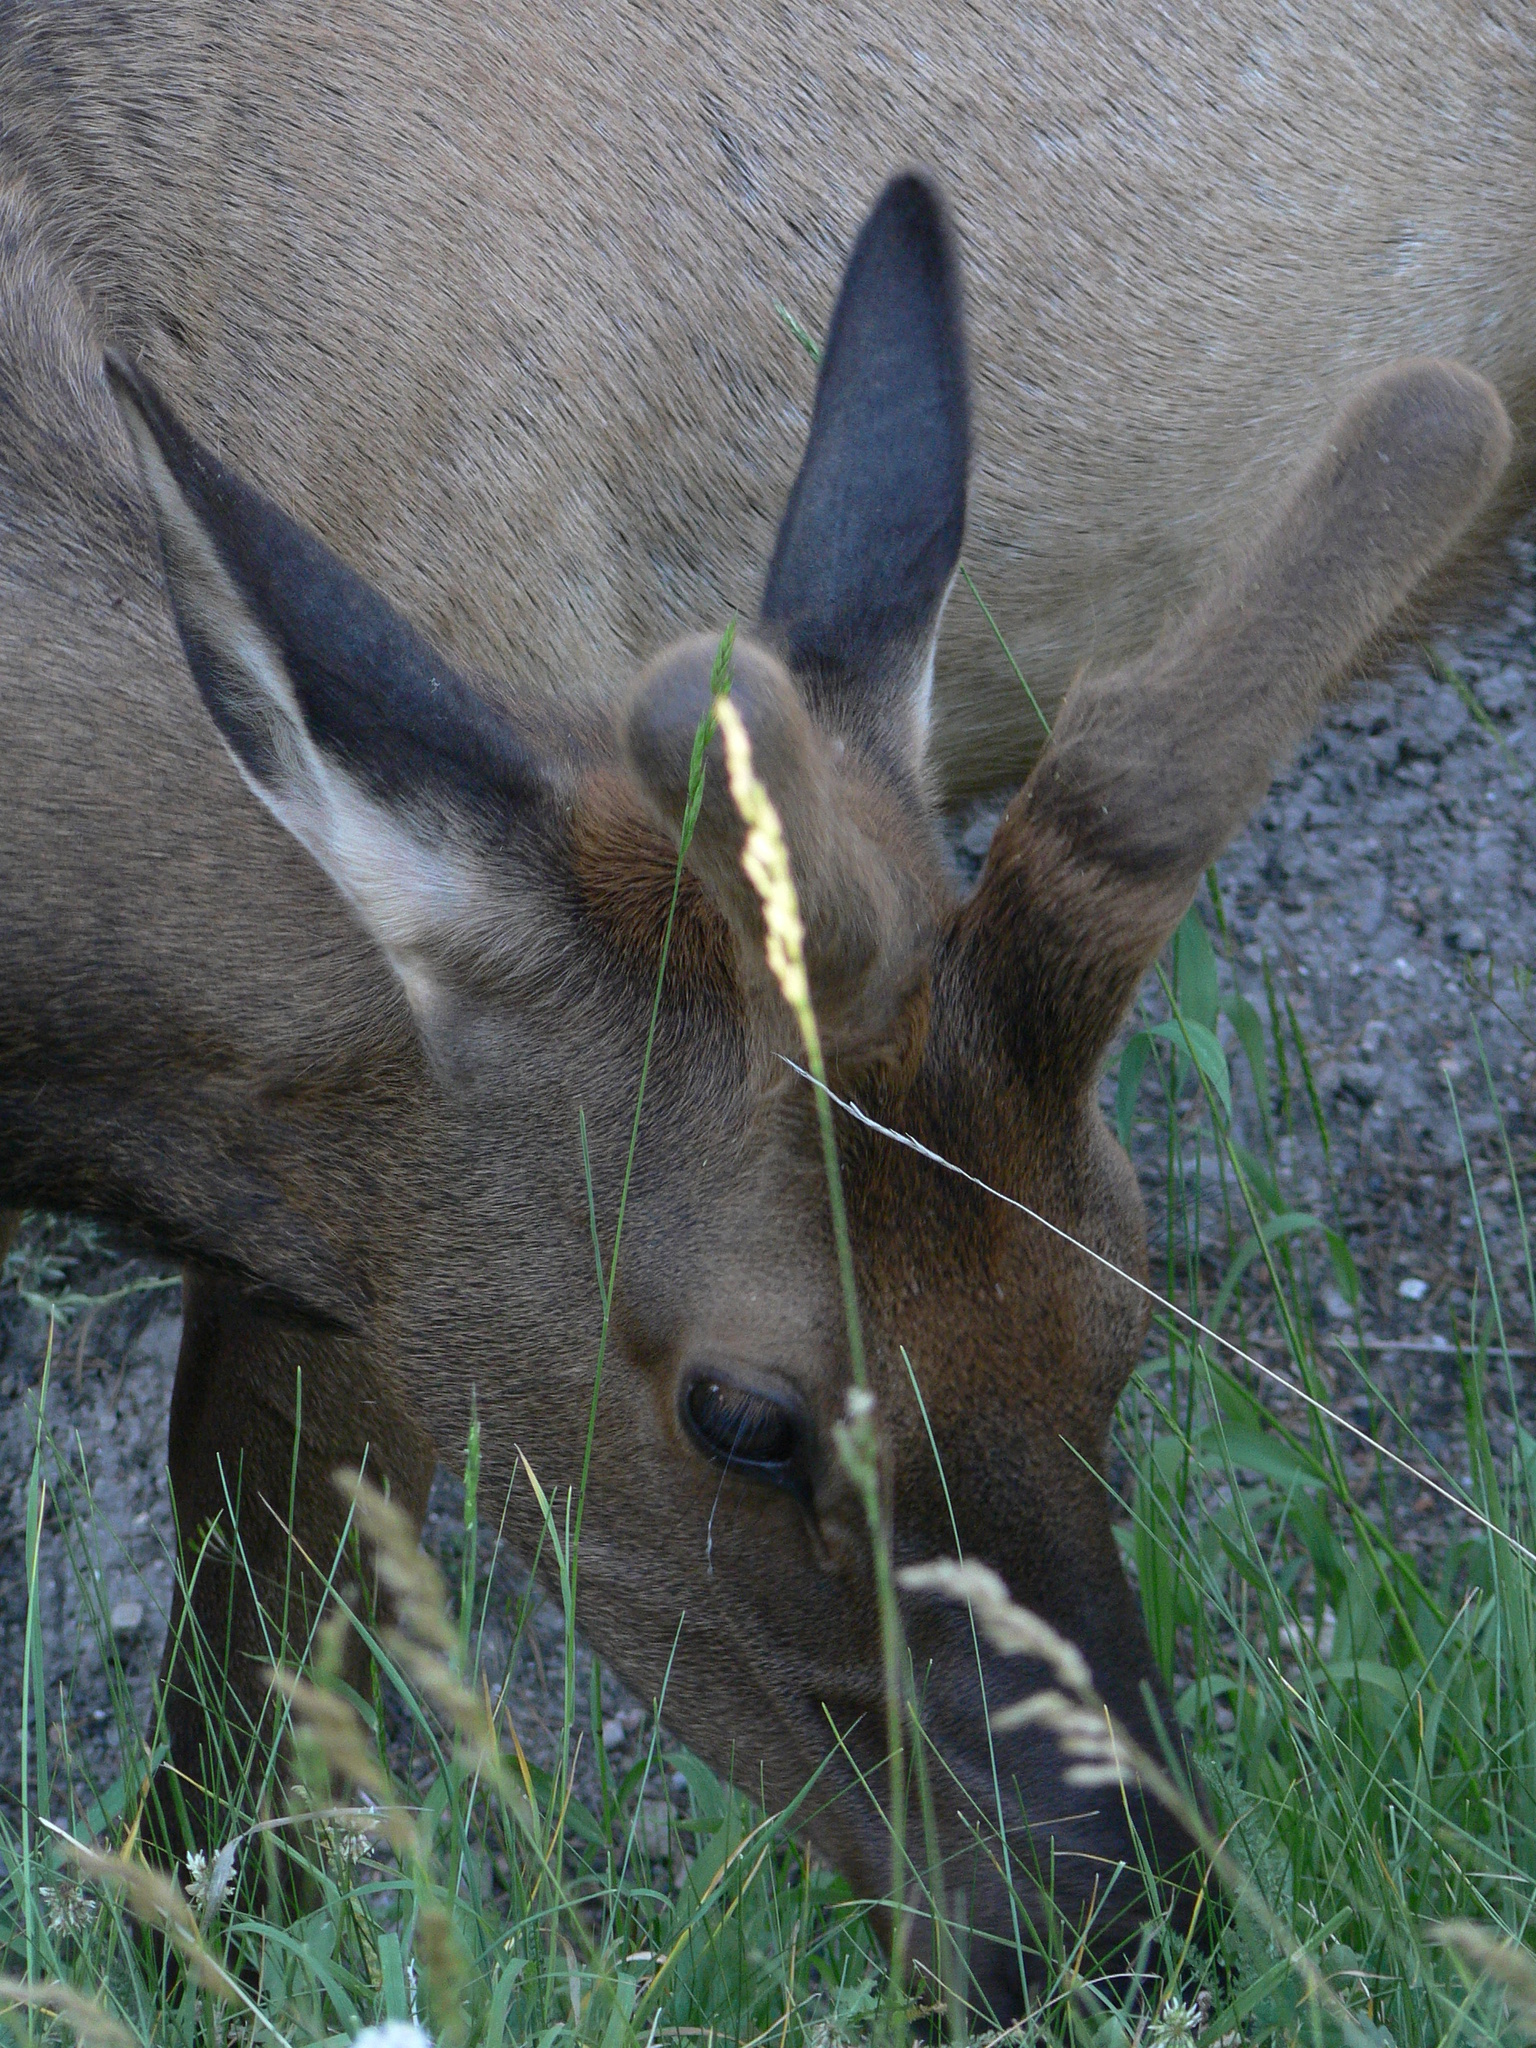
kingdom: Animalia
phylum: Chordata
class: Mammalia
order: Artiodactyla
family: Cervidae
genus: Cervus
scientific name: Cervus elaphus
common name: Red deer
